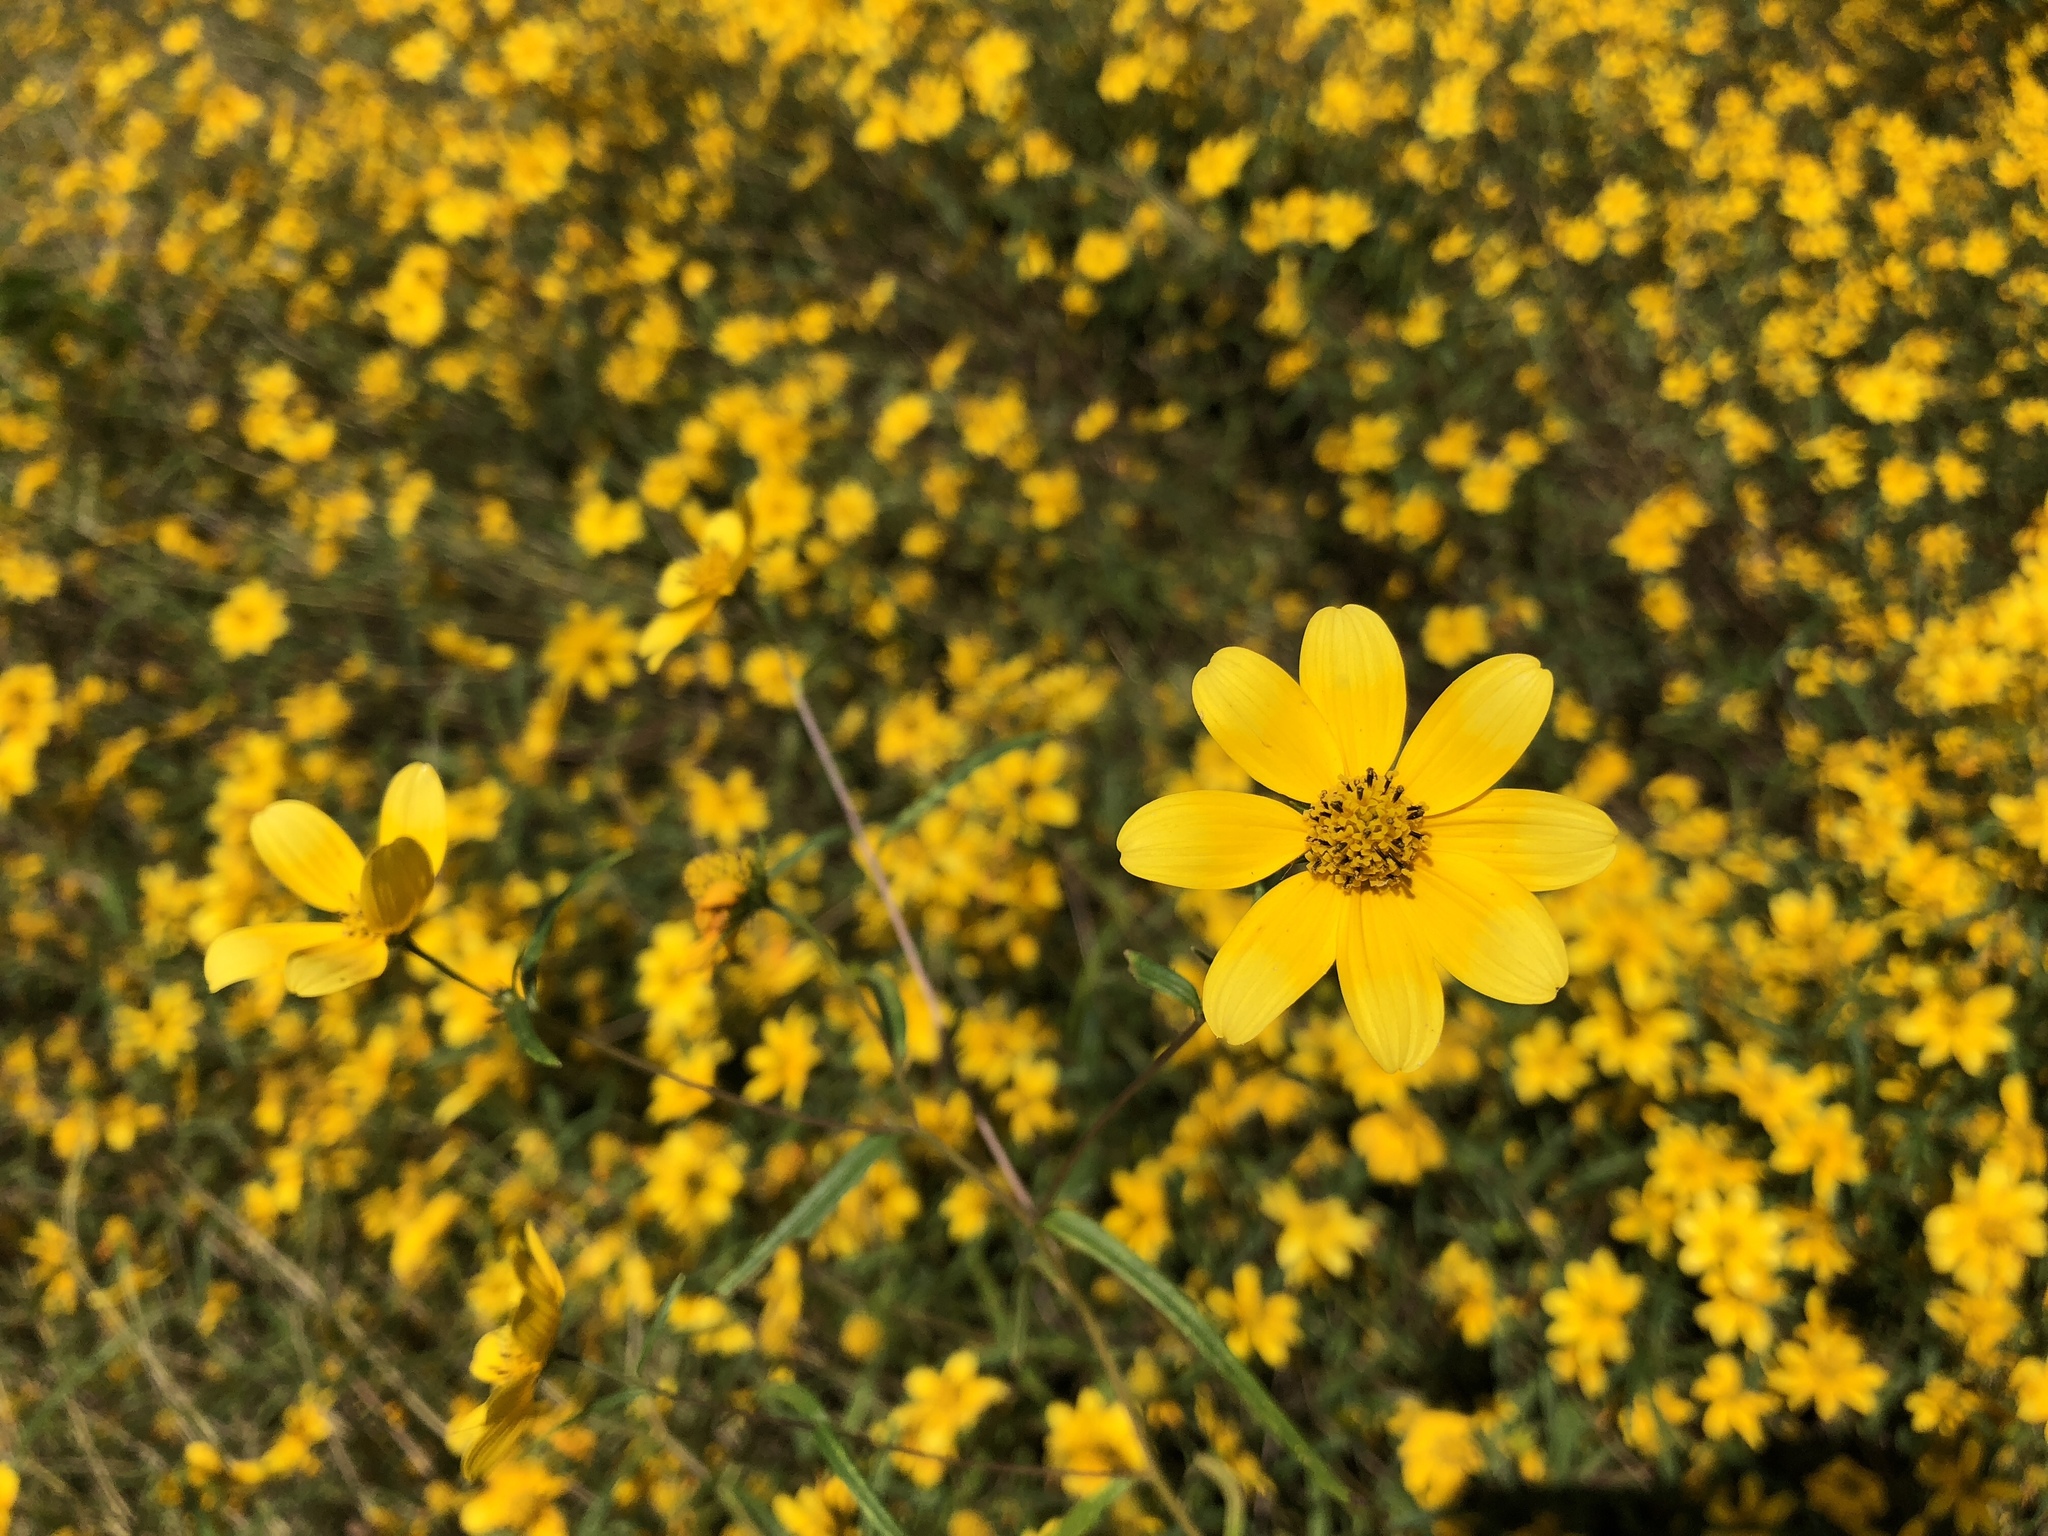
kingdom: Plantae
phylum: Tracheophyta
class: Magnoliopsida
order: Asterales
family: Asteraceae
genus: Helianthus
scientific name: Helianthus porteri
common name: Porter's sunflower
